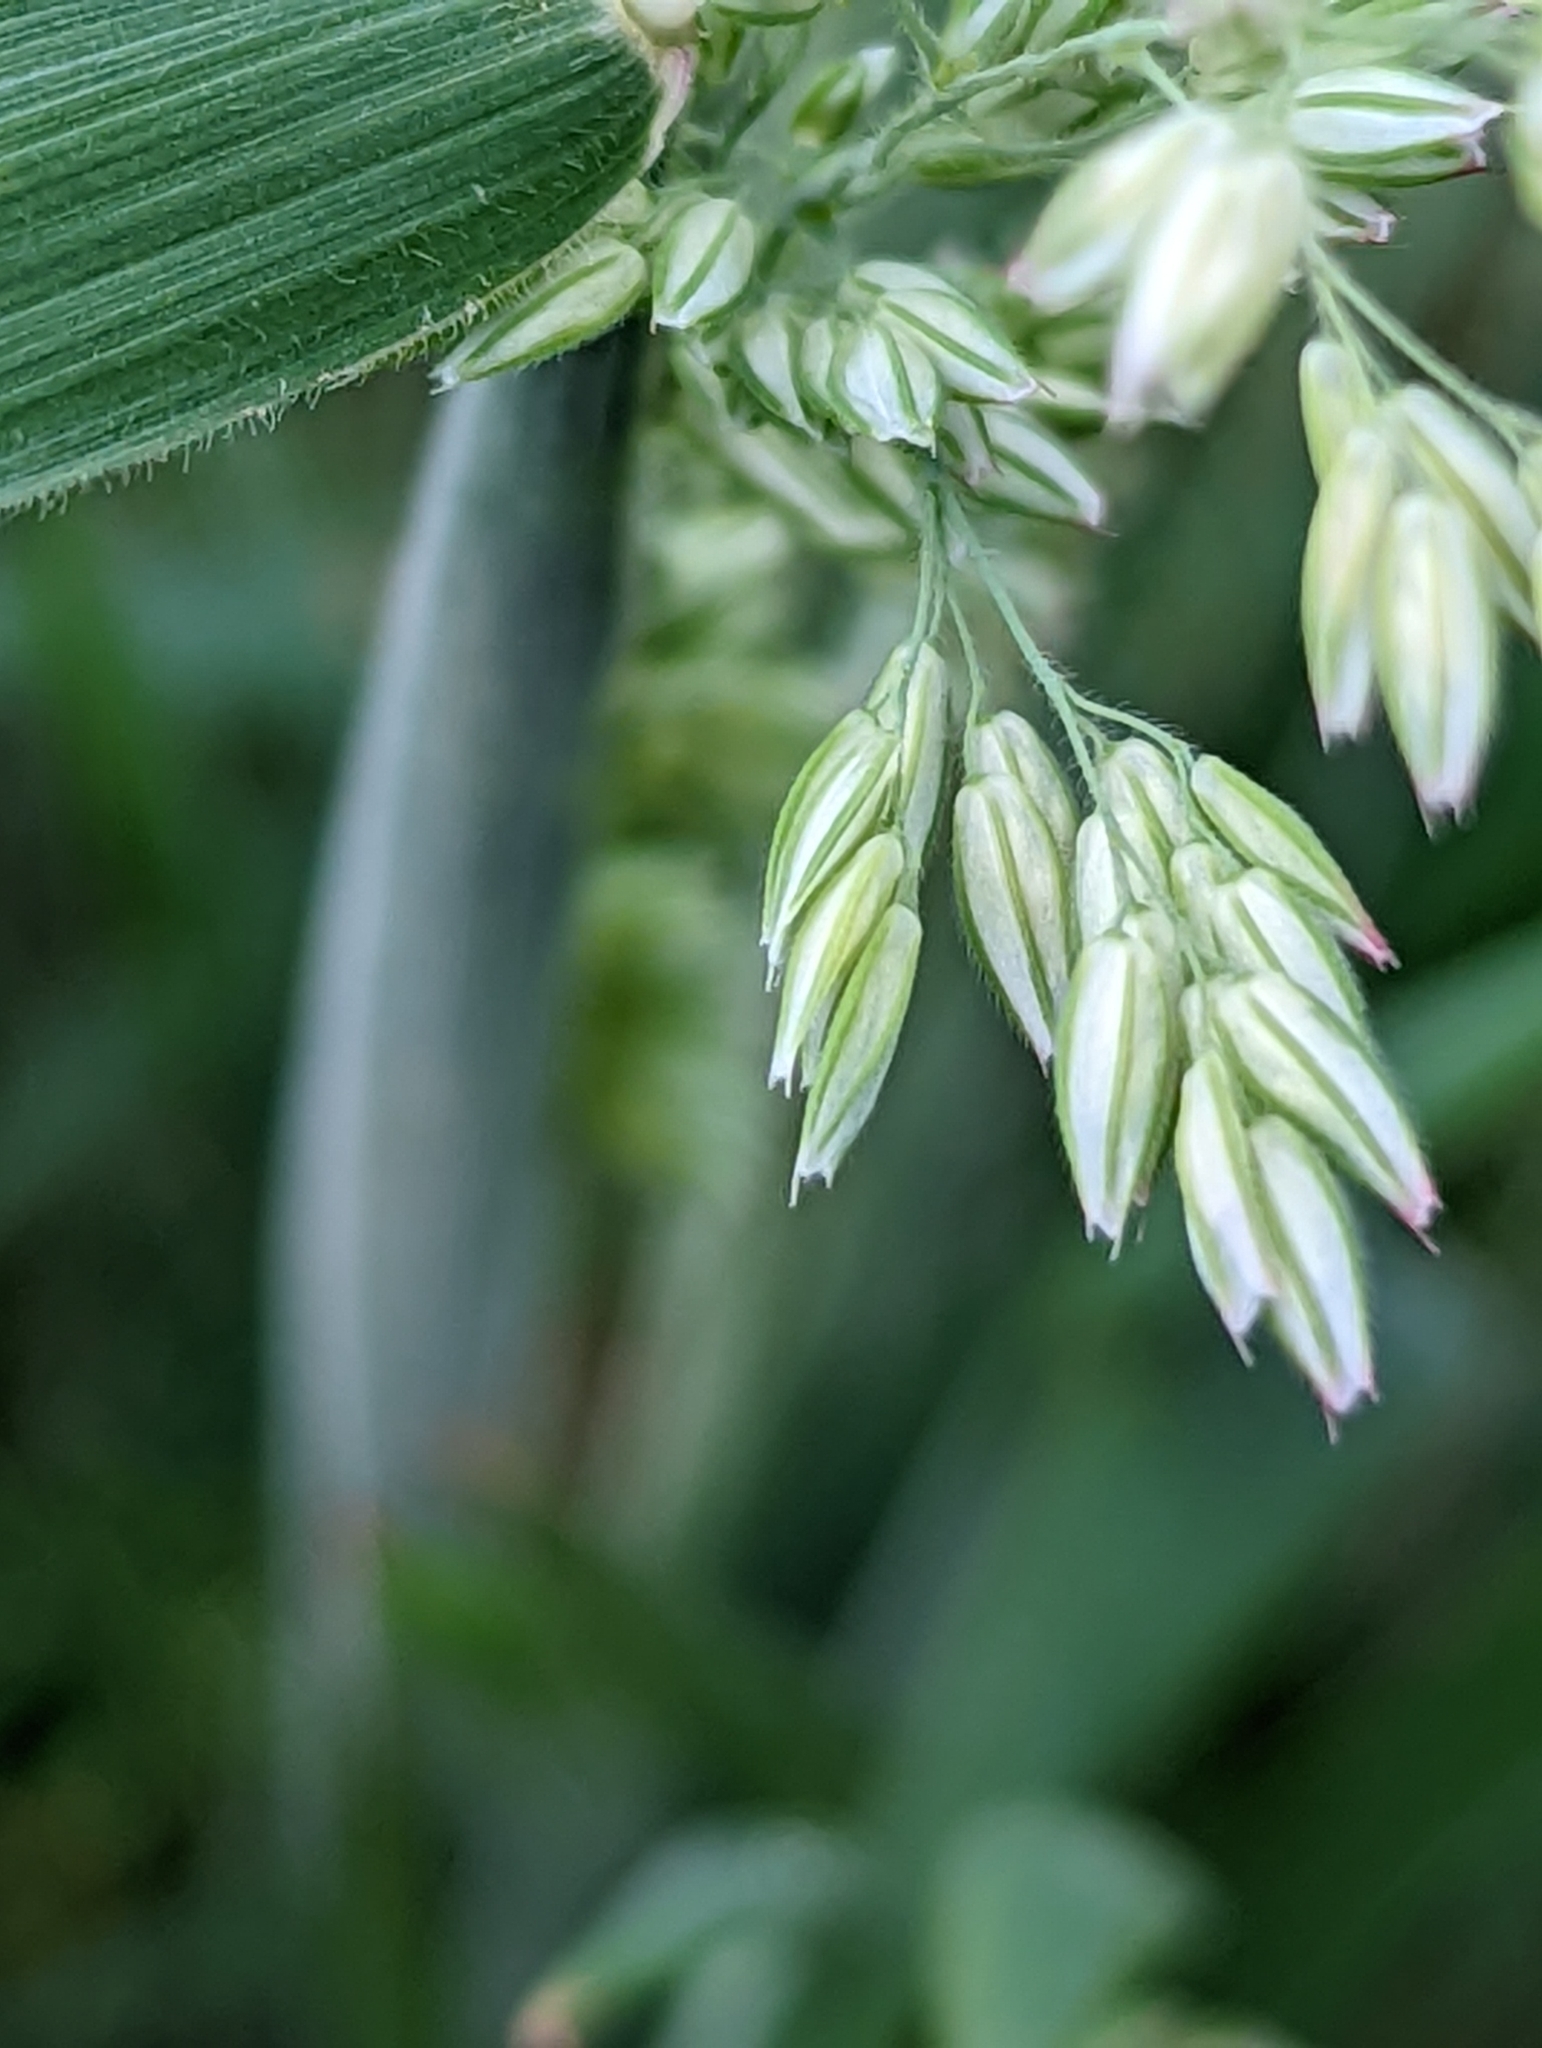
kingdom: Plantae
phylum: Tracheophyta
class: Liliopsida
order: Poales
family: Poaceae
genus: Holcus
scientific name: Holcus lanatus
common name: Yorkshire-fog
